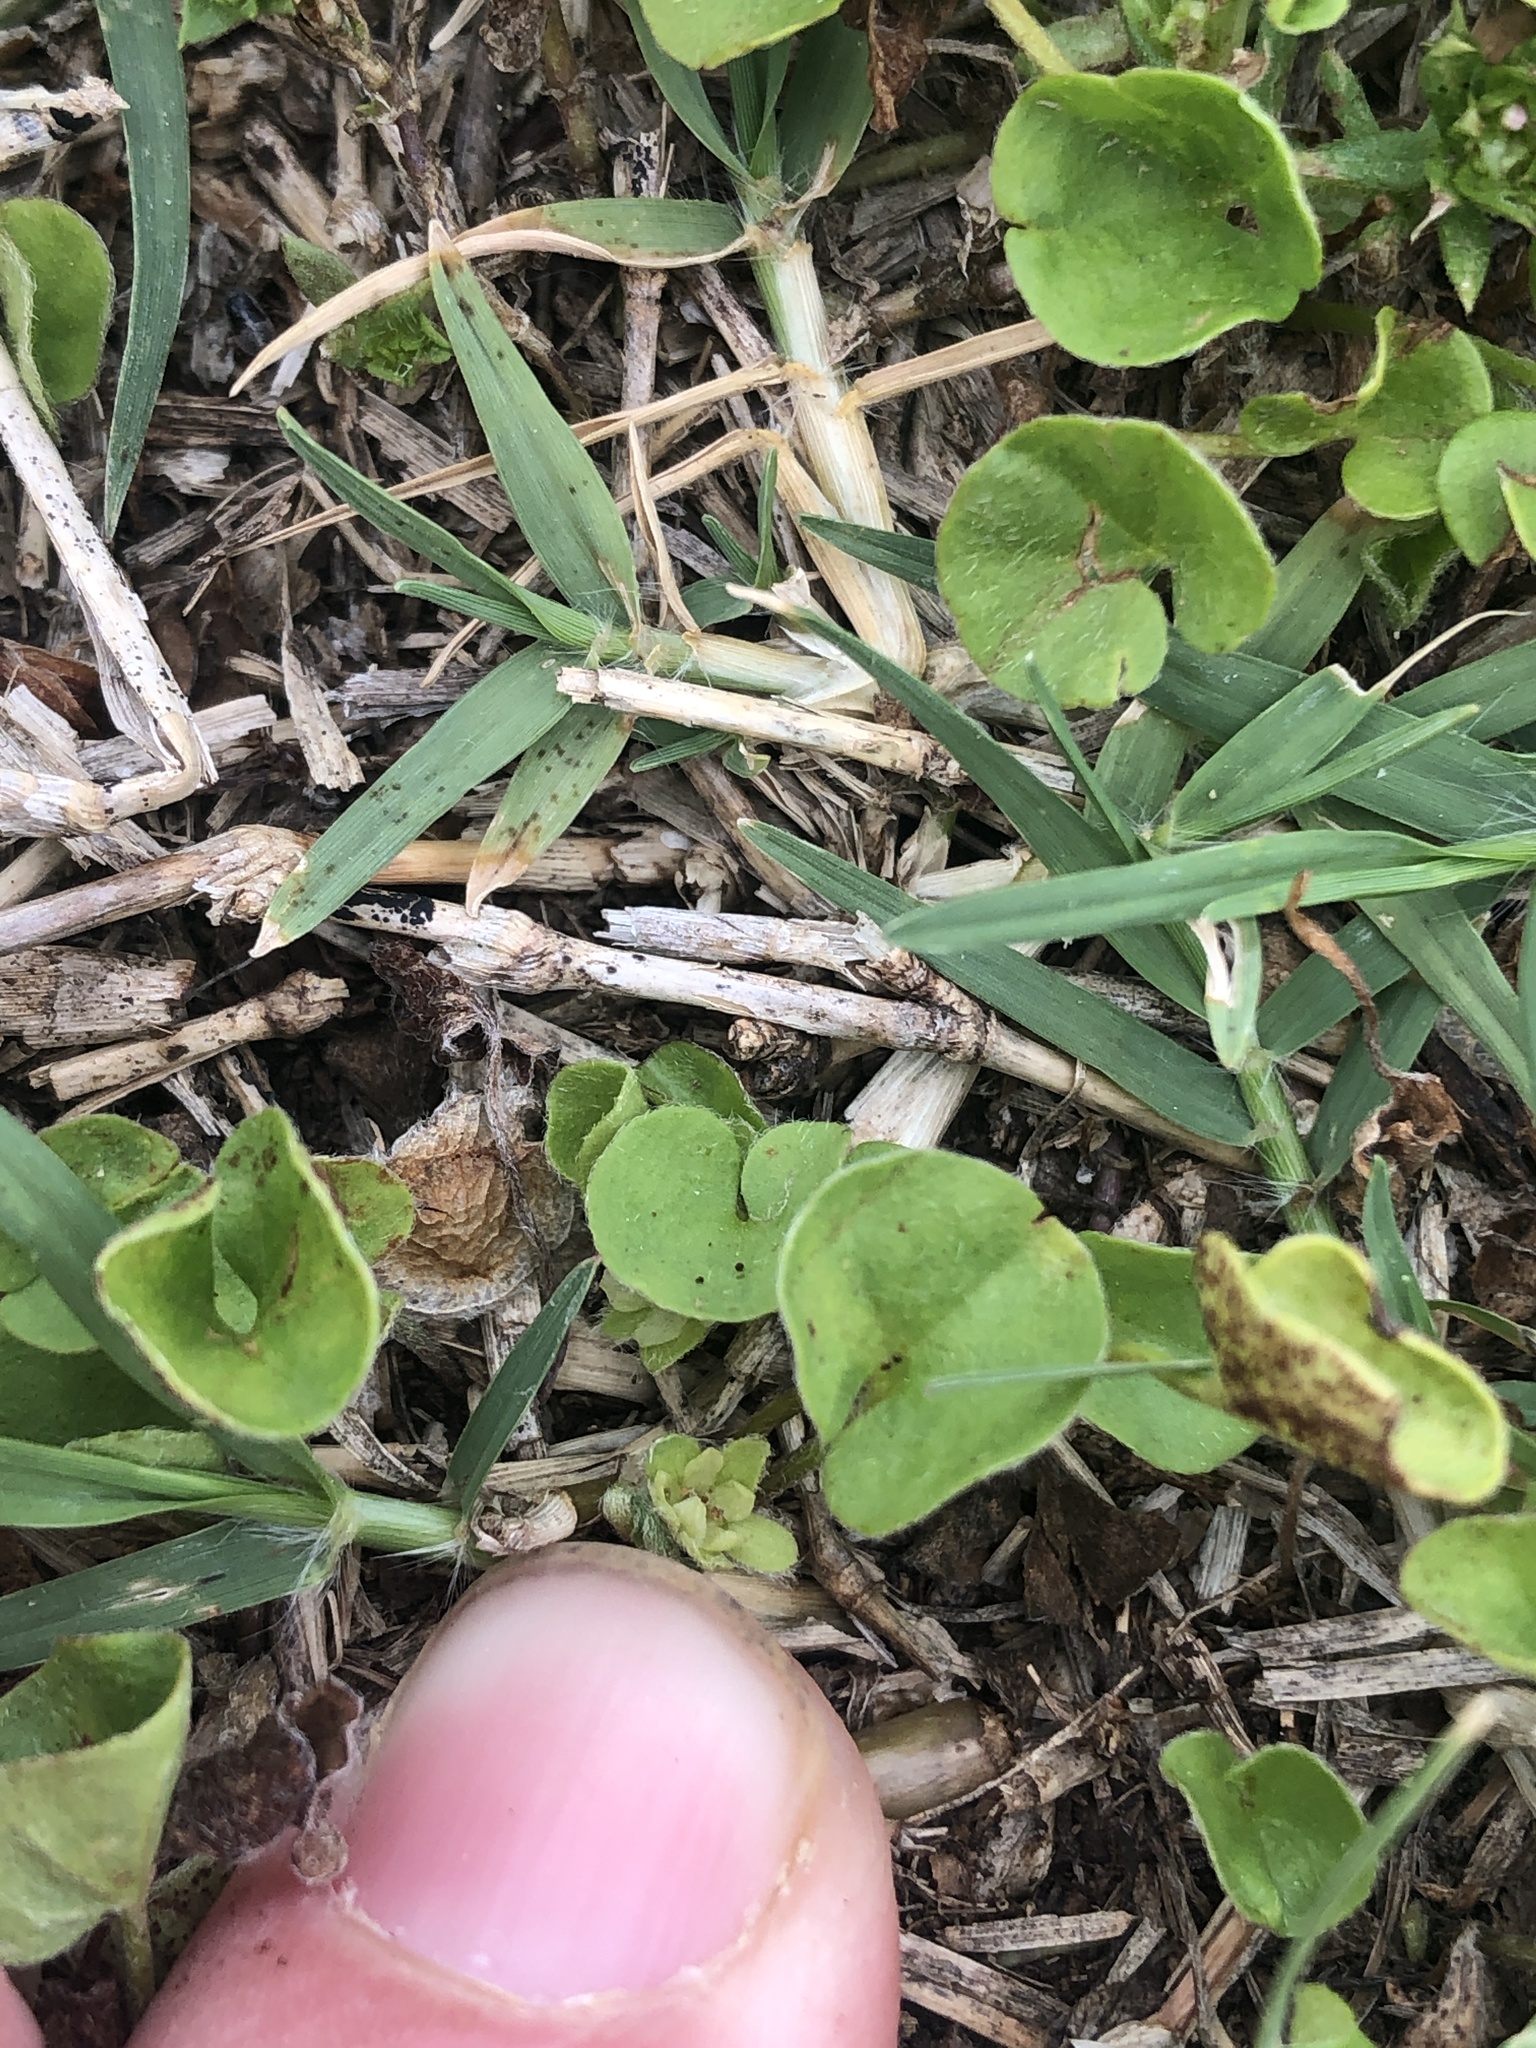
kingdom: Plantae
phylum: Tracheophyta
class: Magnoliopsida
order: Solanales
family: Convolvulaceae
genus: Dichondra
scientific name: Dichondra carolinensis
